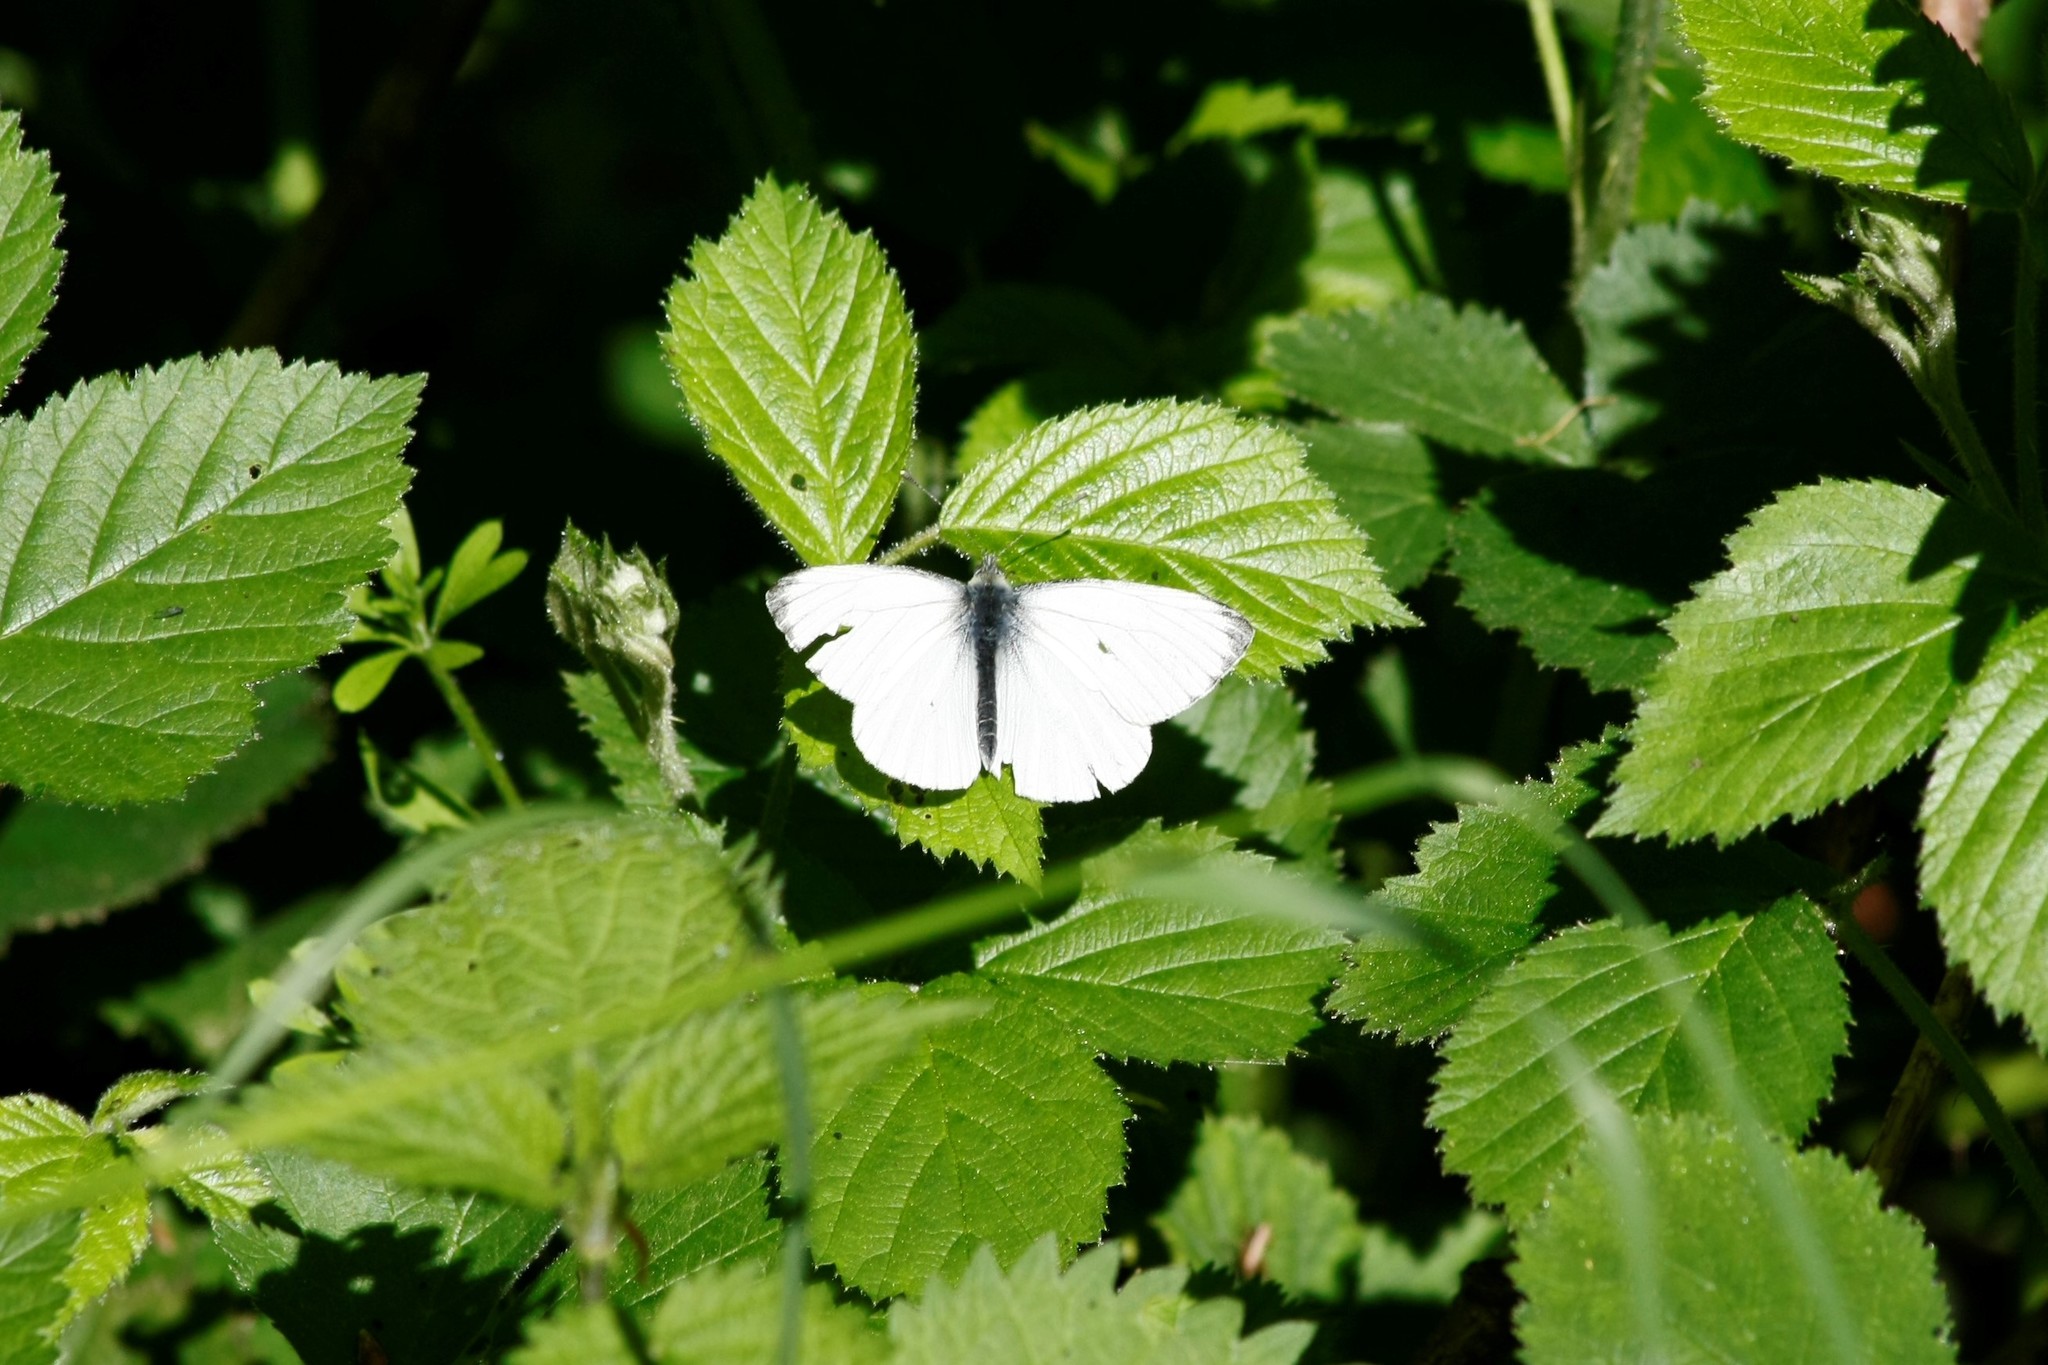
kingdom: Animalia
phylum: Arthropoda
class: Insecta
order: Lepidoptera
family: Pieridae
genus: Pieris
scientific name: Pieris napi
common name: Green-veined white
